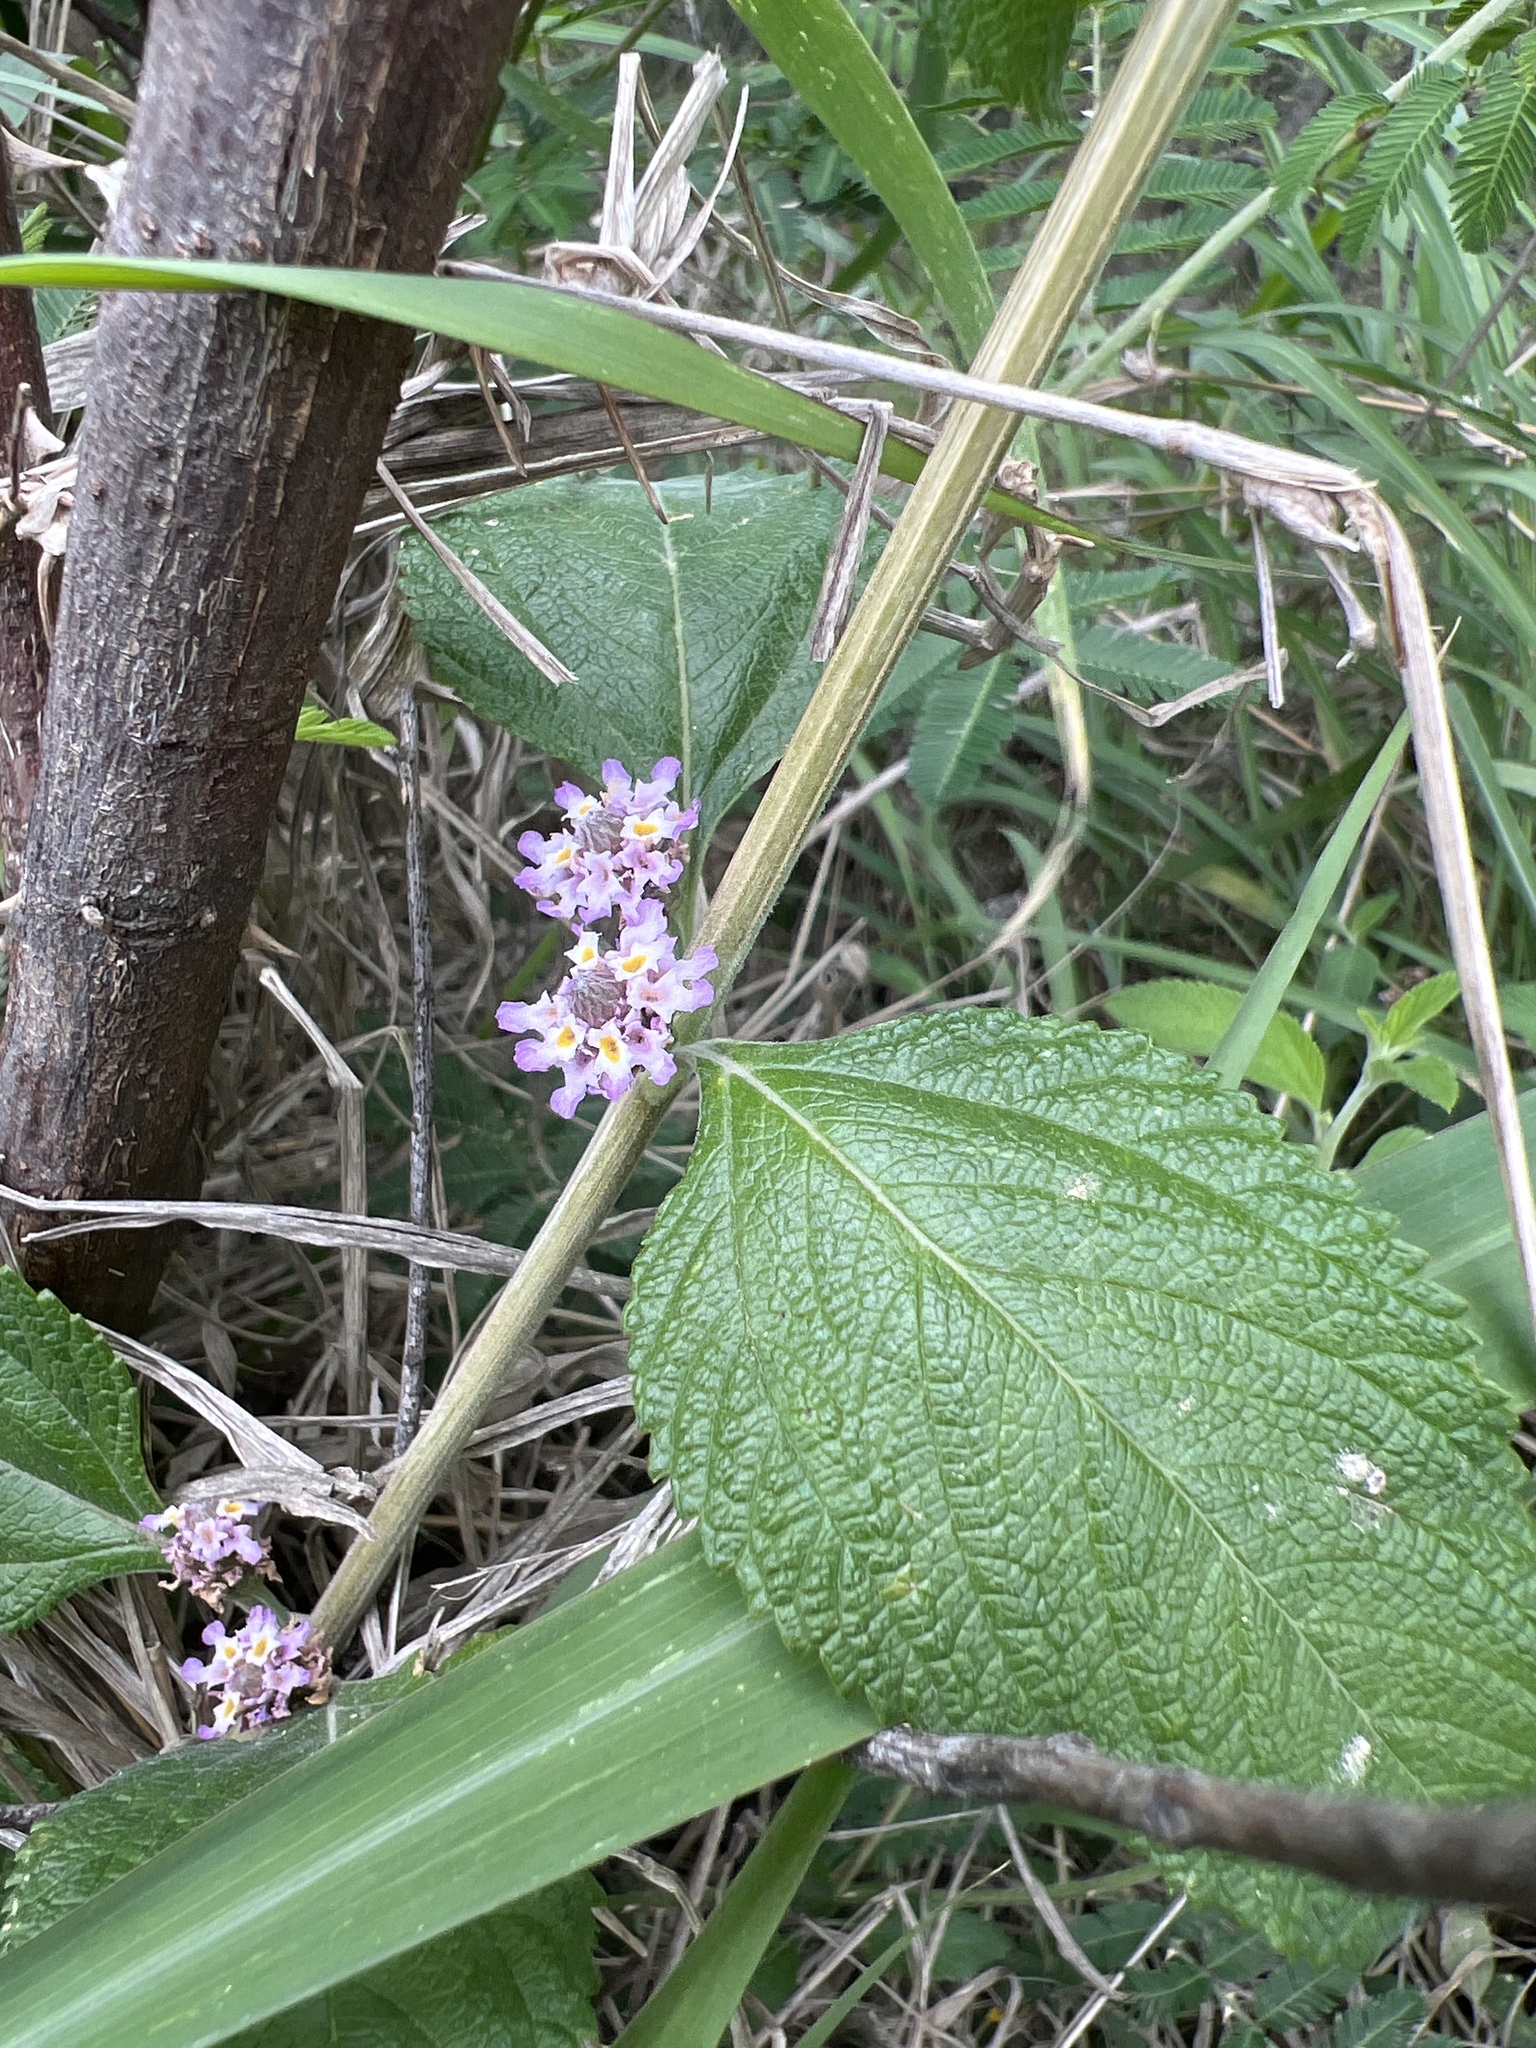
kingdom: Plantae
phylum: Tracheophyta
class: Magnoliopsida
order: Lamiales
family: Verbenaceae
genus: Lippia
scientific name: Lippia alba
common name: Bushy matgrass
